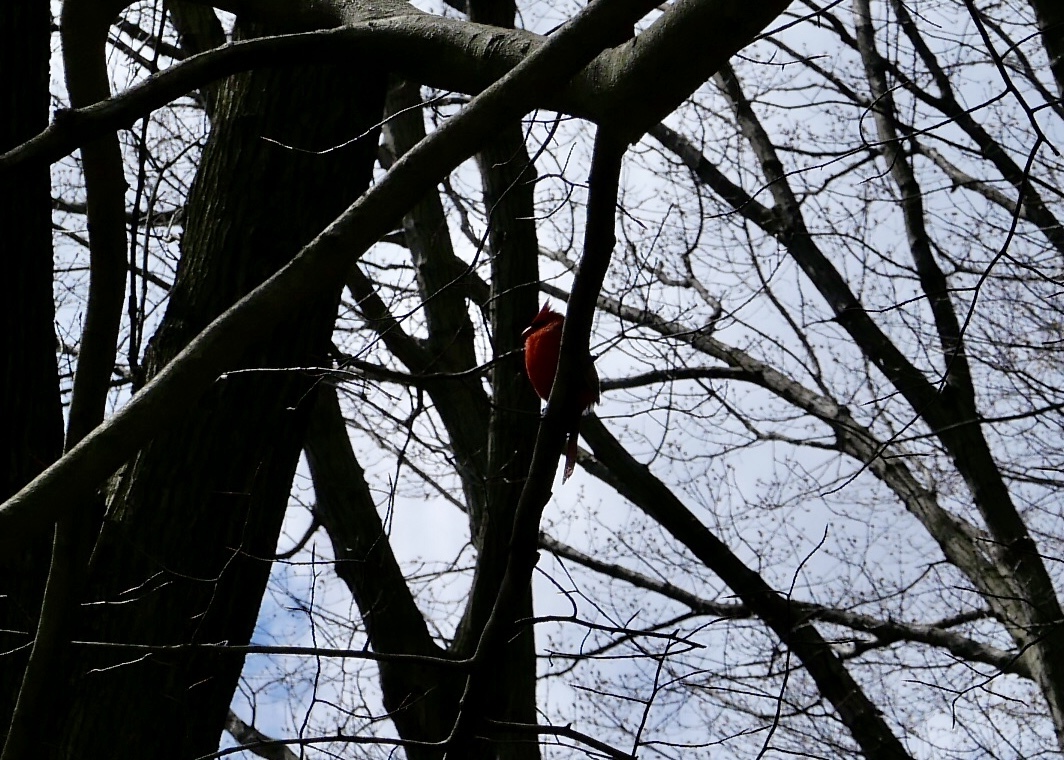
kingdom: Animalia
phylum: Chordata
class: Aves
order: Passeriformes
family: Cardinalidae
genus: Cardinalis
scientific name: Cardinalis cardinalis
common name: Northern cardinal
